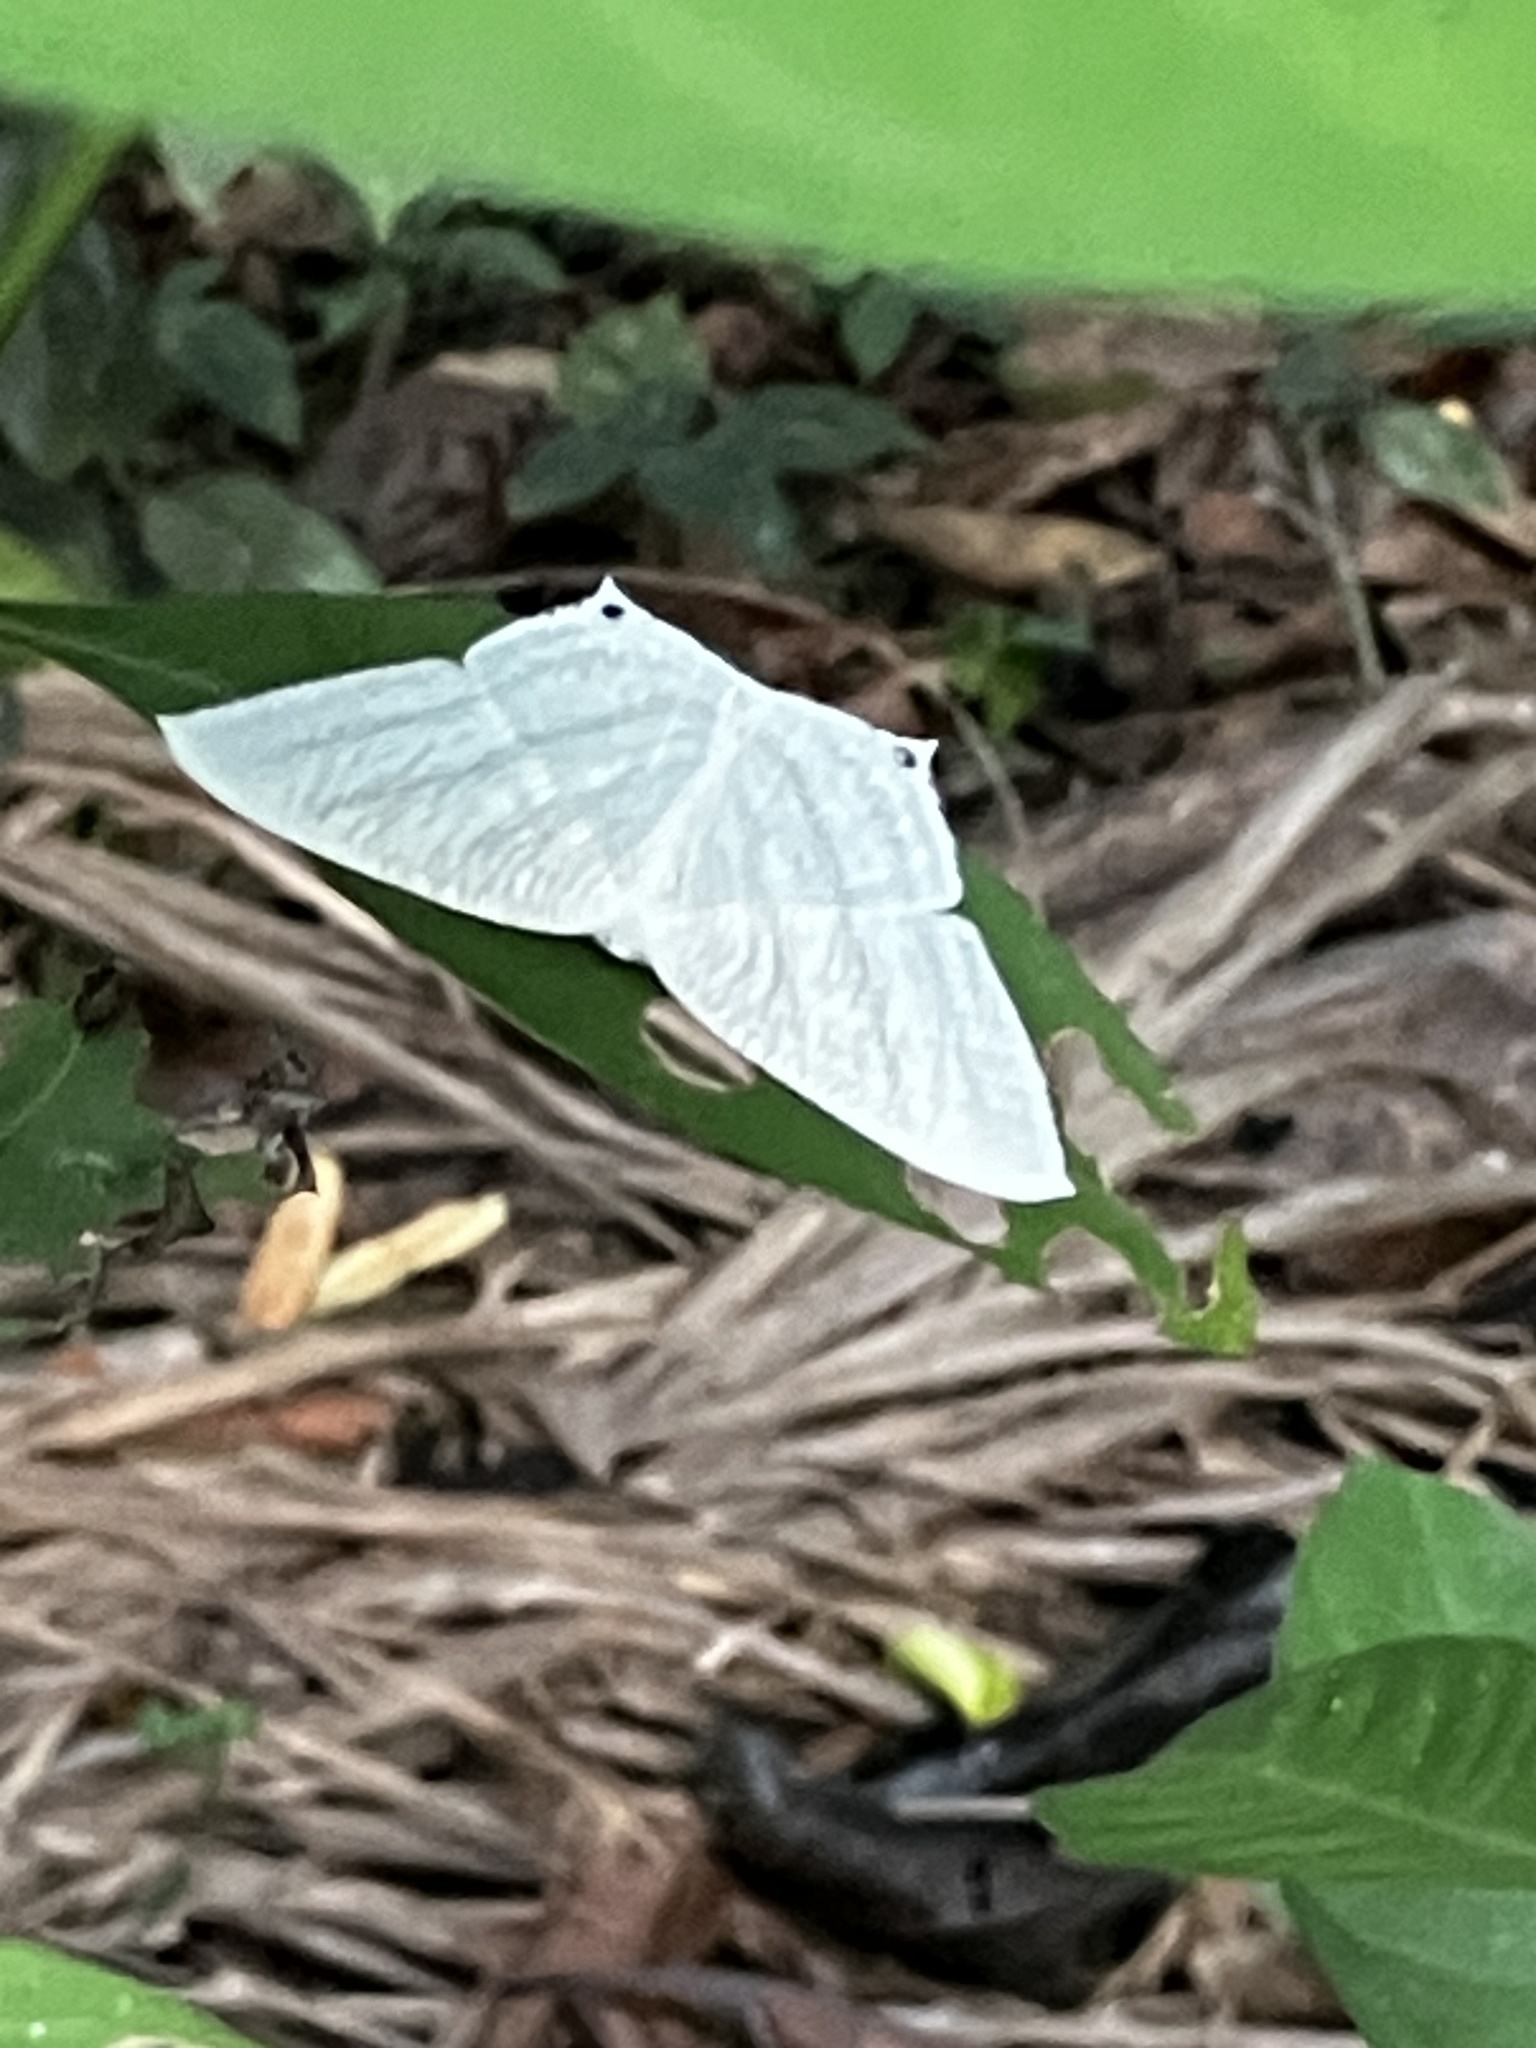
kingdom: Animalia
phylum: Arthropoda
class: Insecta
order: Lepidoptera
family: Uraniidae
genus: Micronia
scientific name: Micronia aculeata
